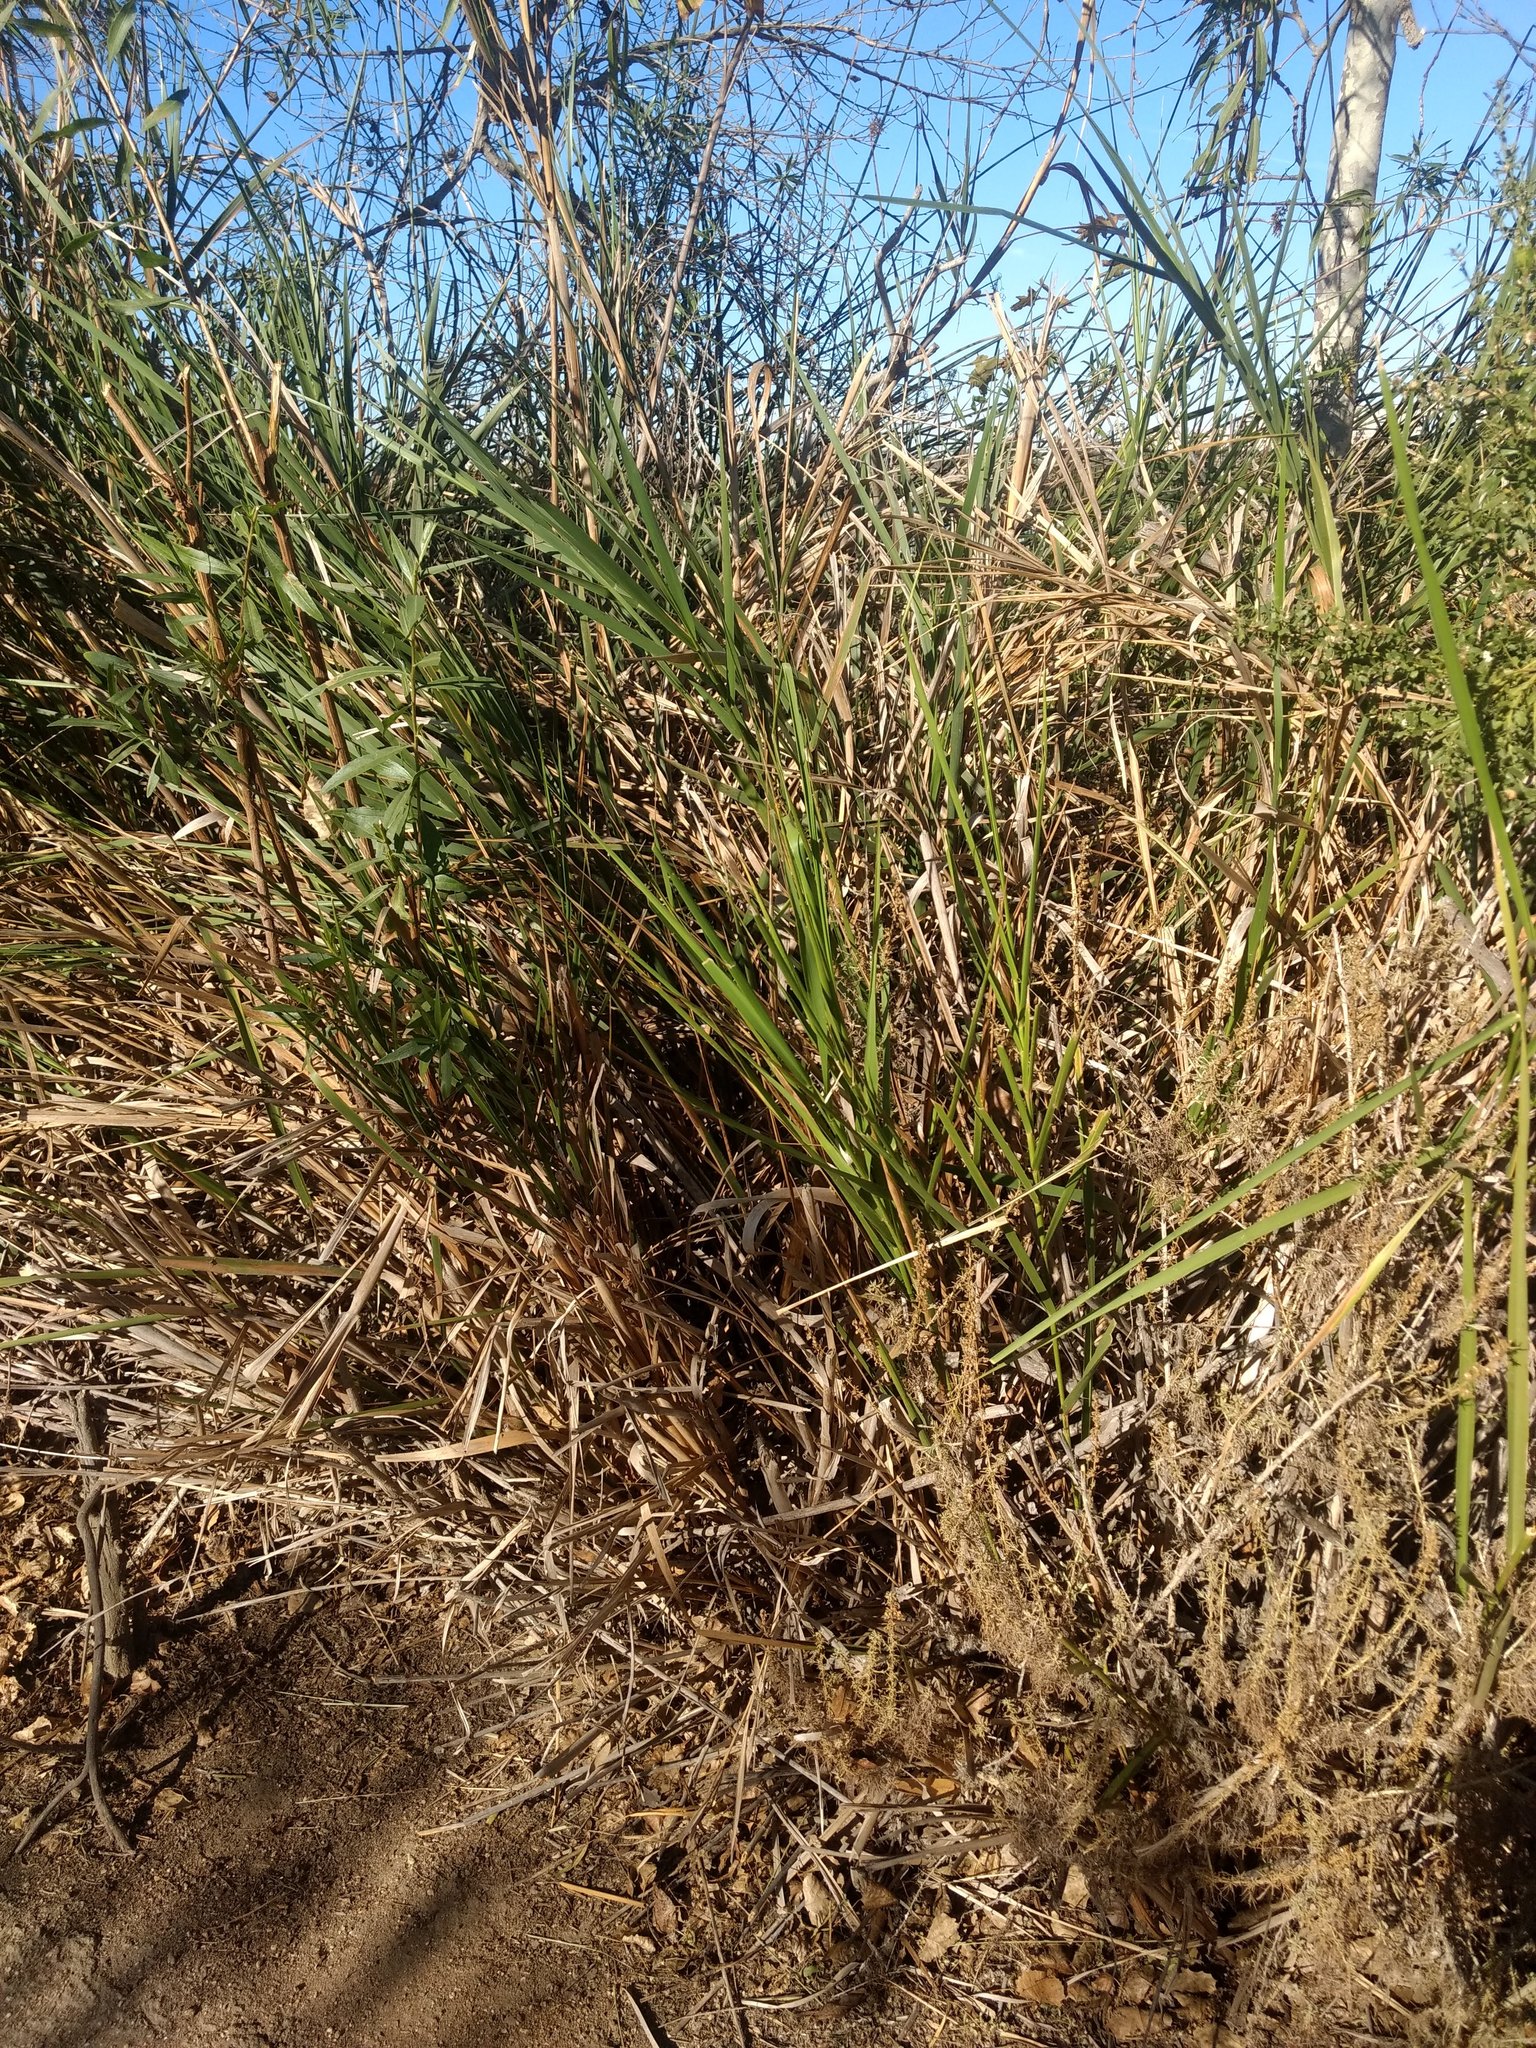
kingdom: Plantae
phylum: Tracheophyta
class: Liliopsida
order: Poales
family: Poaceae
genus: Leymus
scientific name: Leymus condensatus
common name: Giant wild rye
